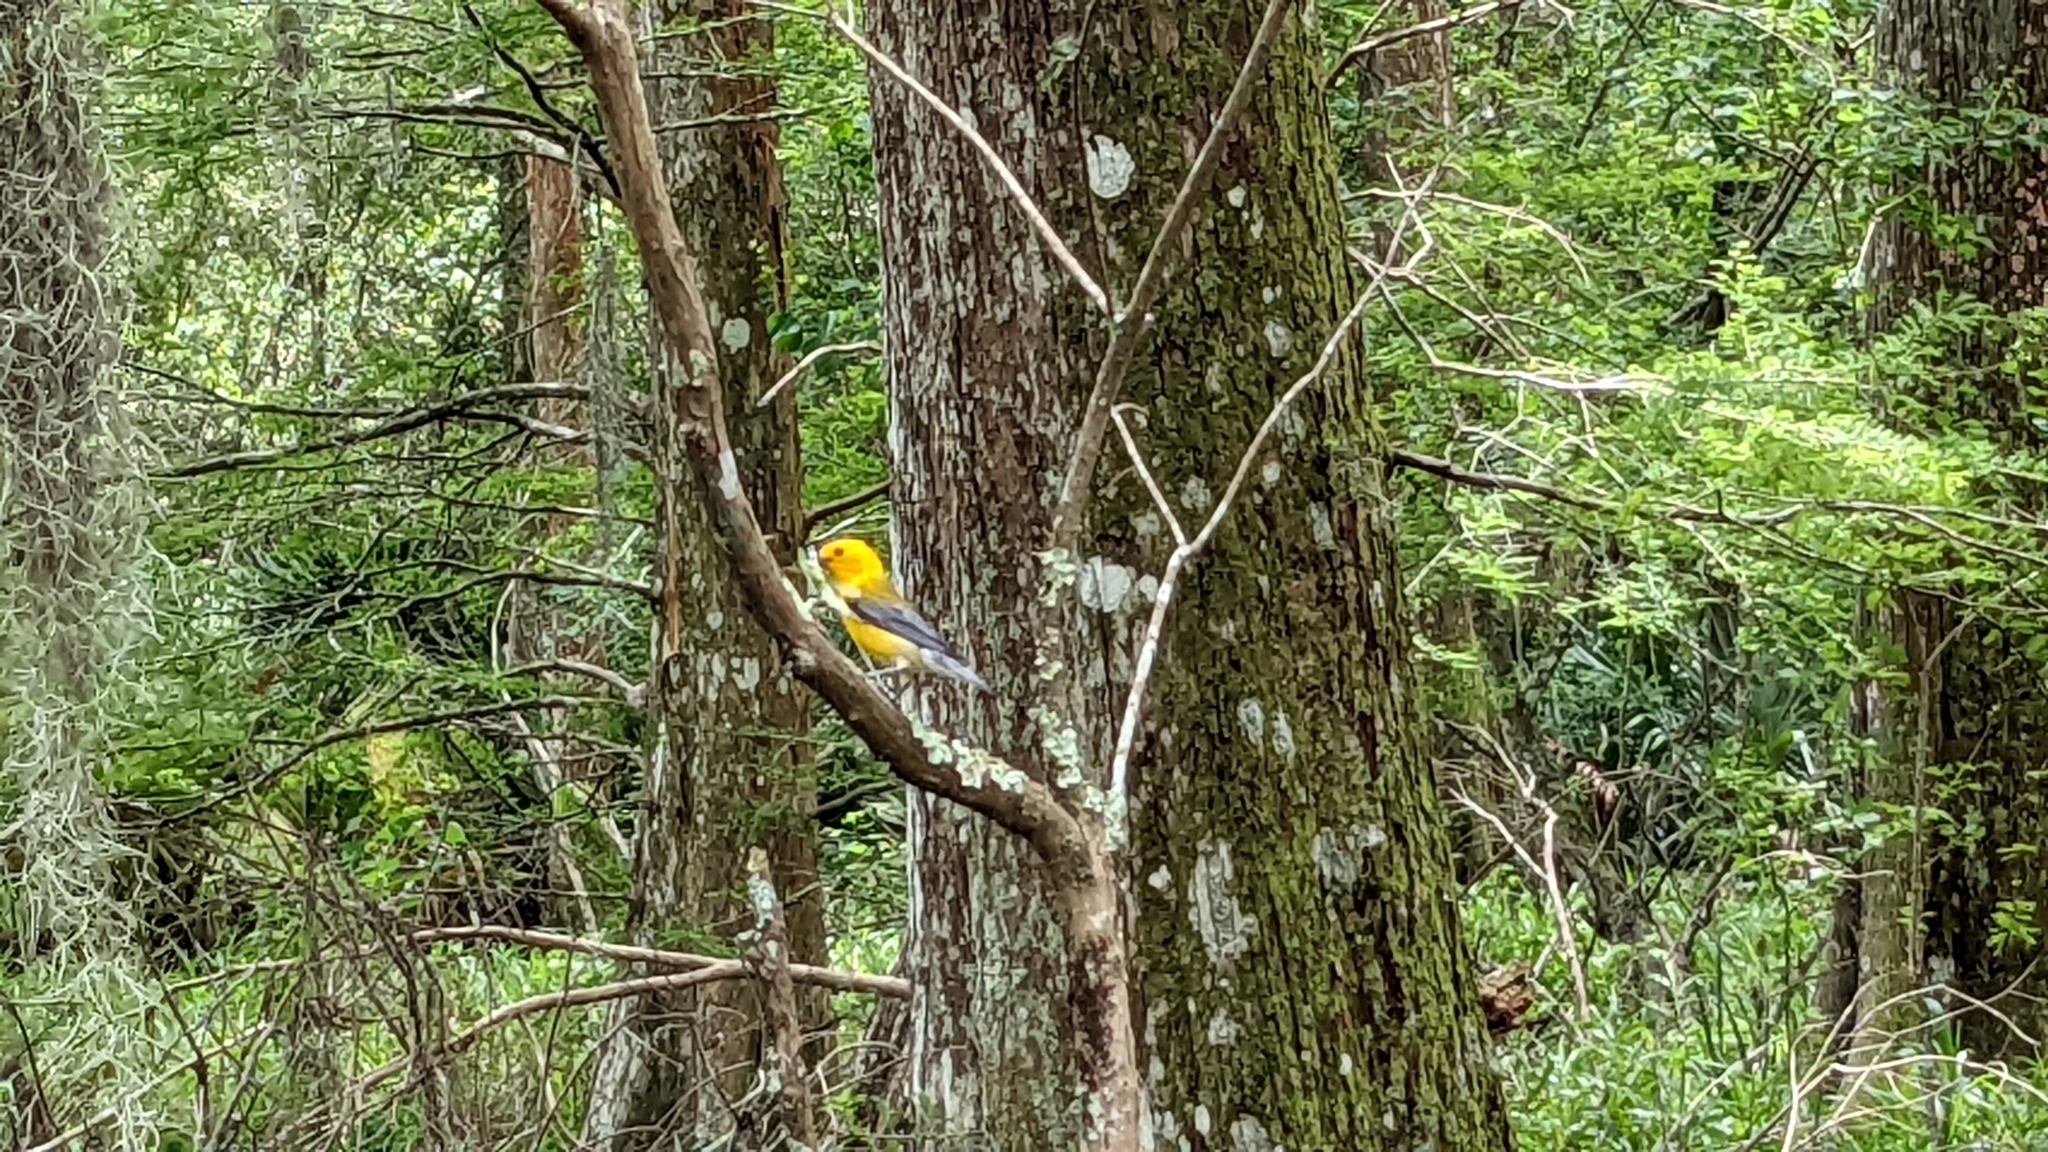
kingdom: Animalia
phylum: Chordata
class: Aves
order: Passeriformes
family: Parulidae
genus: Protonotaria
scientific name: Protonotaria citrea
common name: Prothonotary warbler
